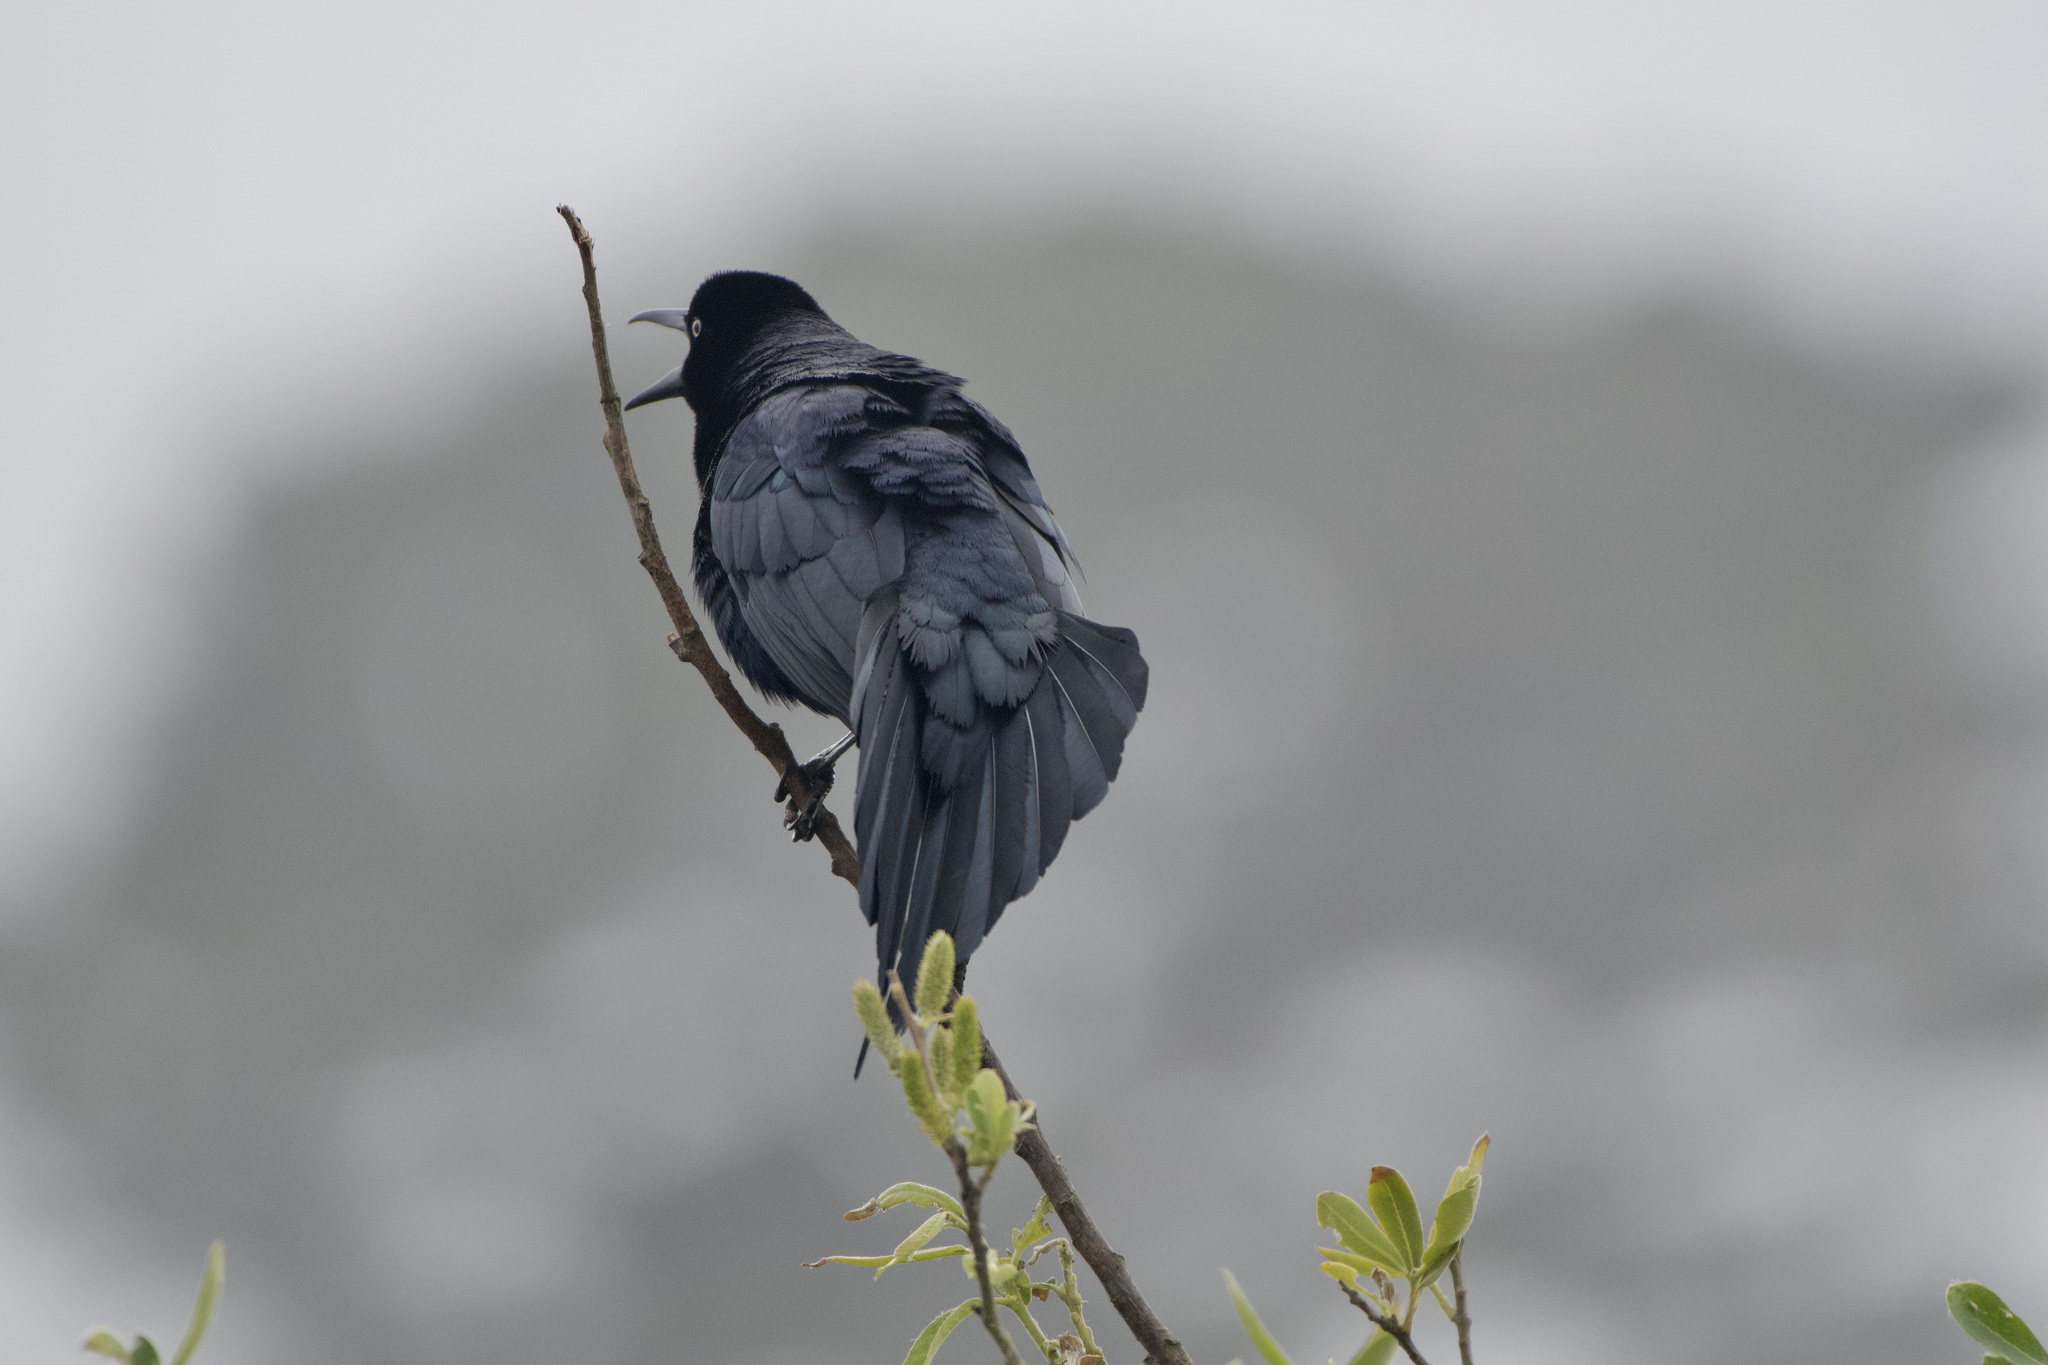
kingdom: Animalia
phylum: Chordata
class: Aves
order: Passeriformes
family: Icteridae
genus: Quiscalus
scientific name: Quiscalus mexicanus
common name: Great-tailed grackle
